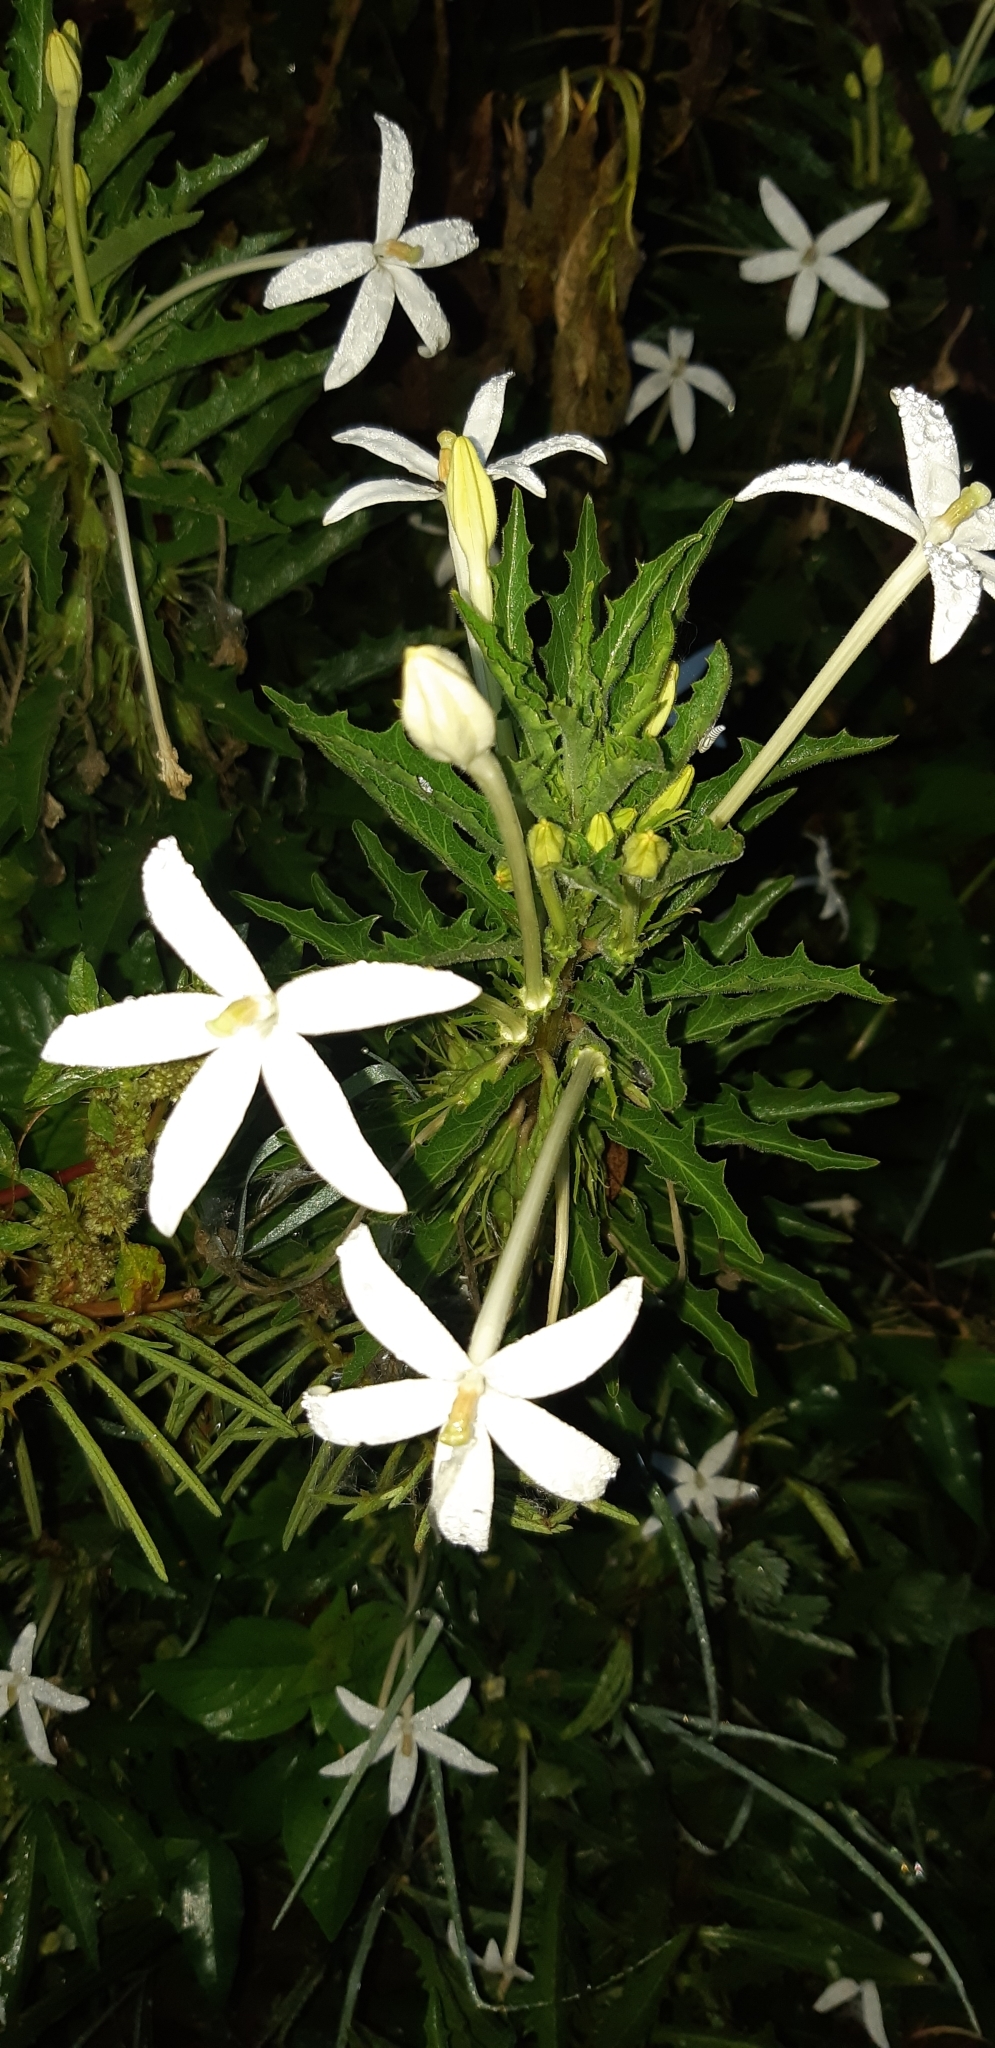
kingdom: Plantae
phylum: Tracheophyta
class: Magnoliopsida
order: Asterales
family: Campanulaceae
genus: Hippobroma
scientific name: Hippobroma longiflora
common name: Madamfate
